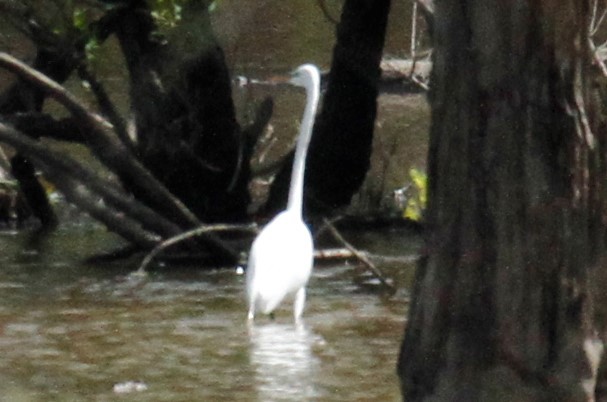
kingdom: Animalia
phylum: Chordata
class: Aves
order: Pelecaniformes
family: Ardeidae
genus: Ardea
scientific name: Ardea alba
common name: Great egret
